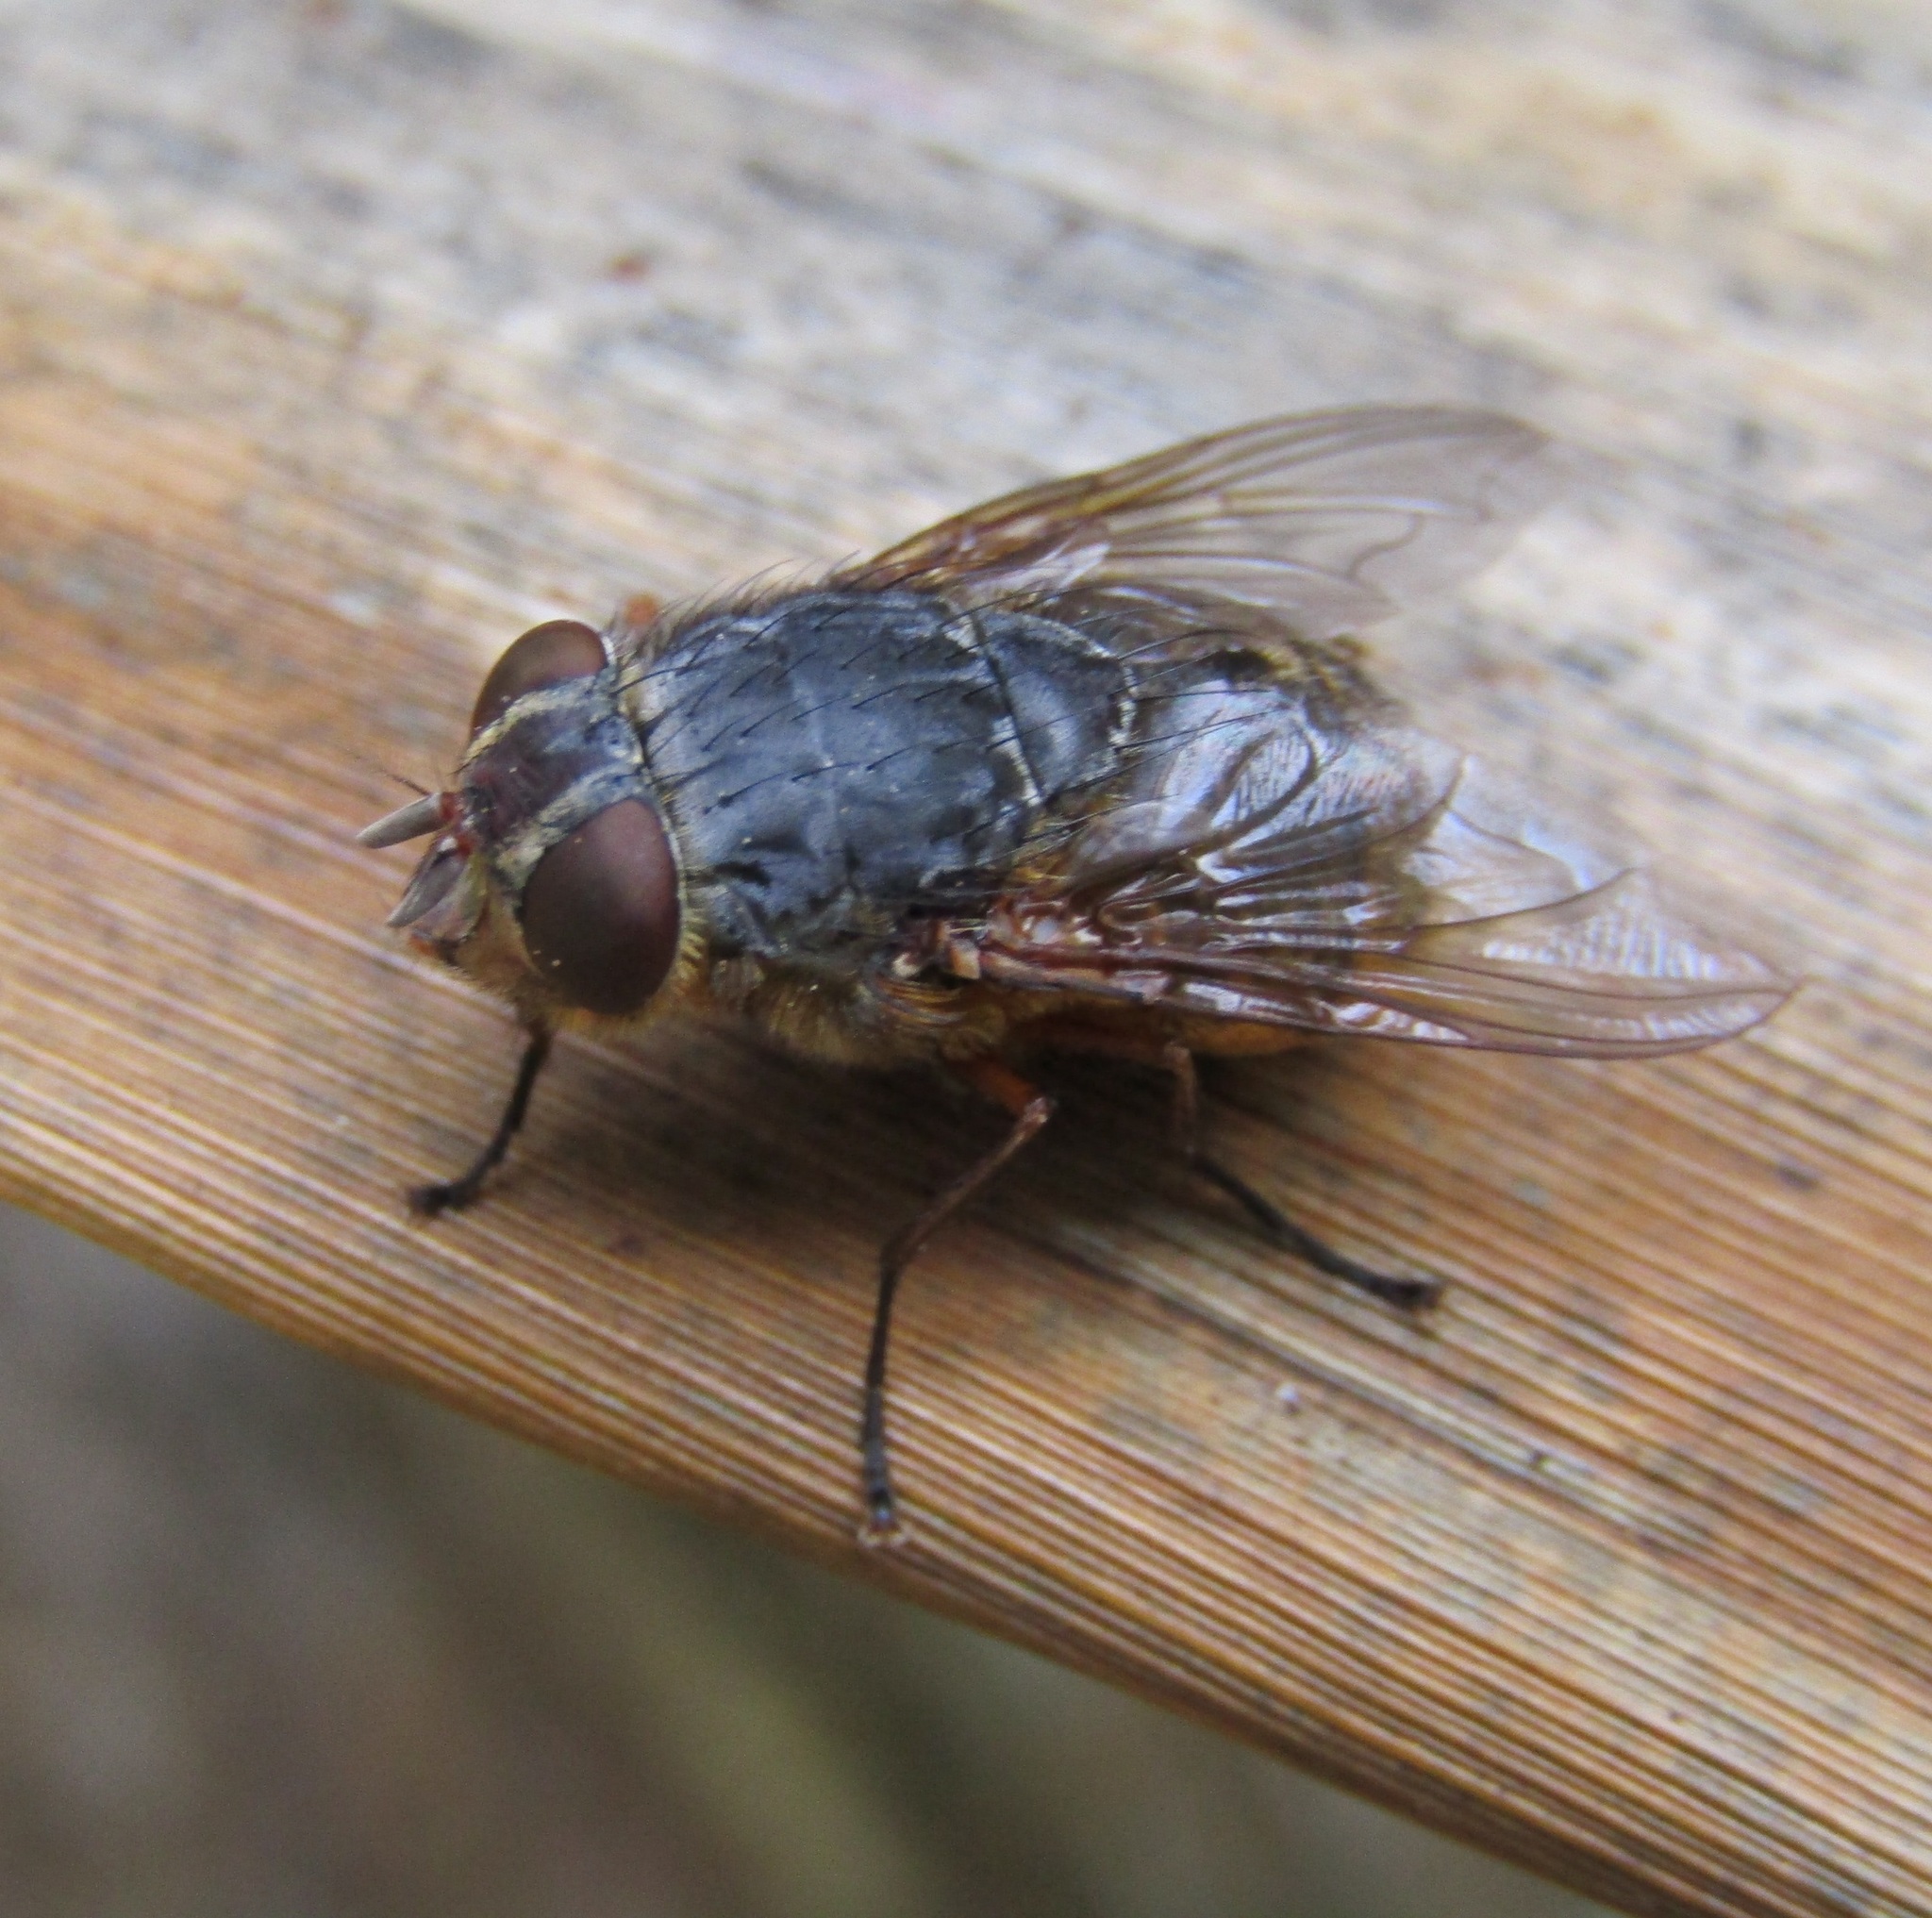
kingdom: Animalia
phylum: Arthropoda
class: Insecta
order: Diptera
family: Calliphoridae
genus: Calliphora
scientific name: Calliphora stygia
